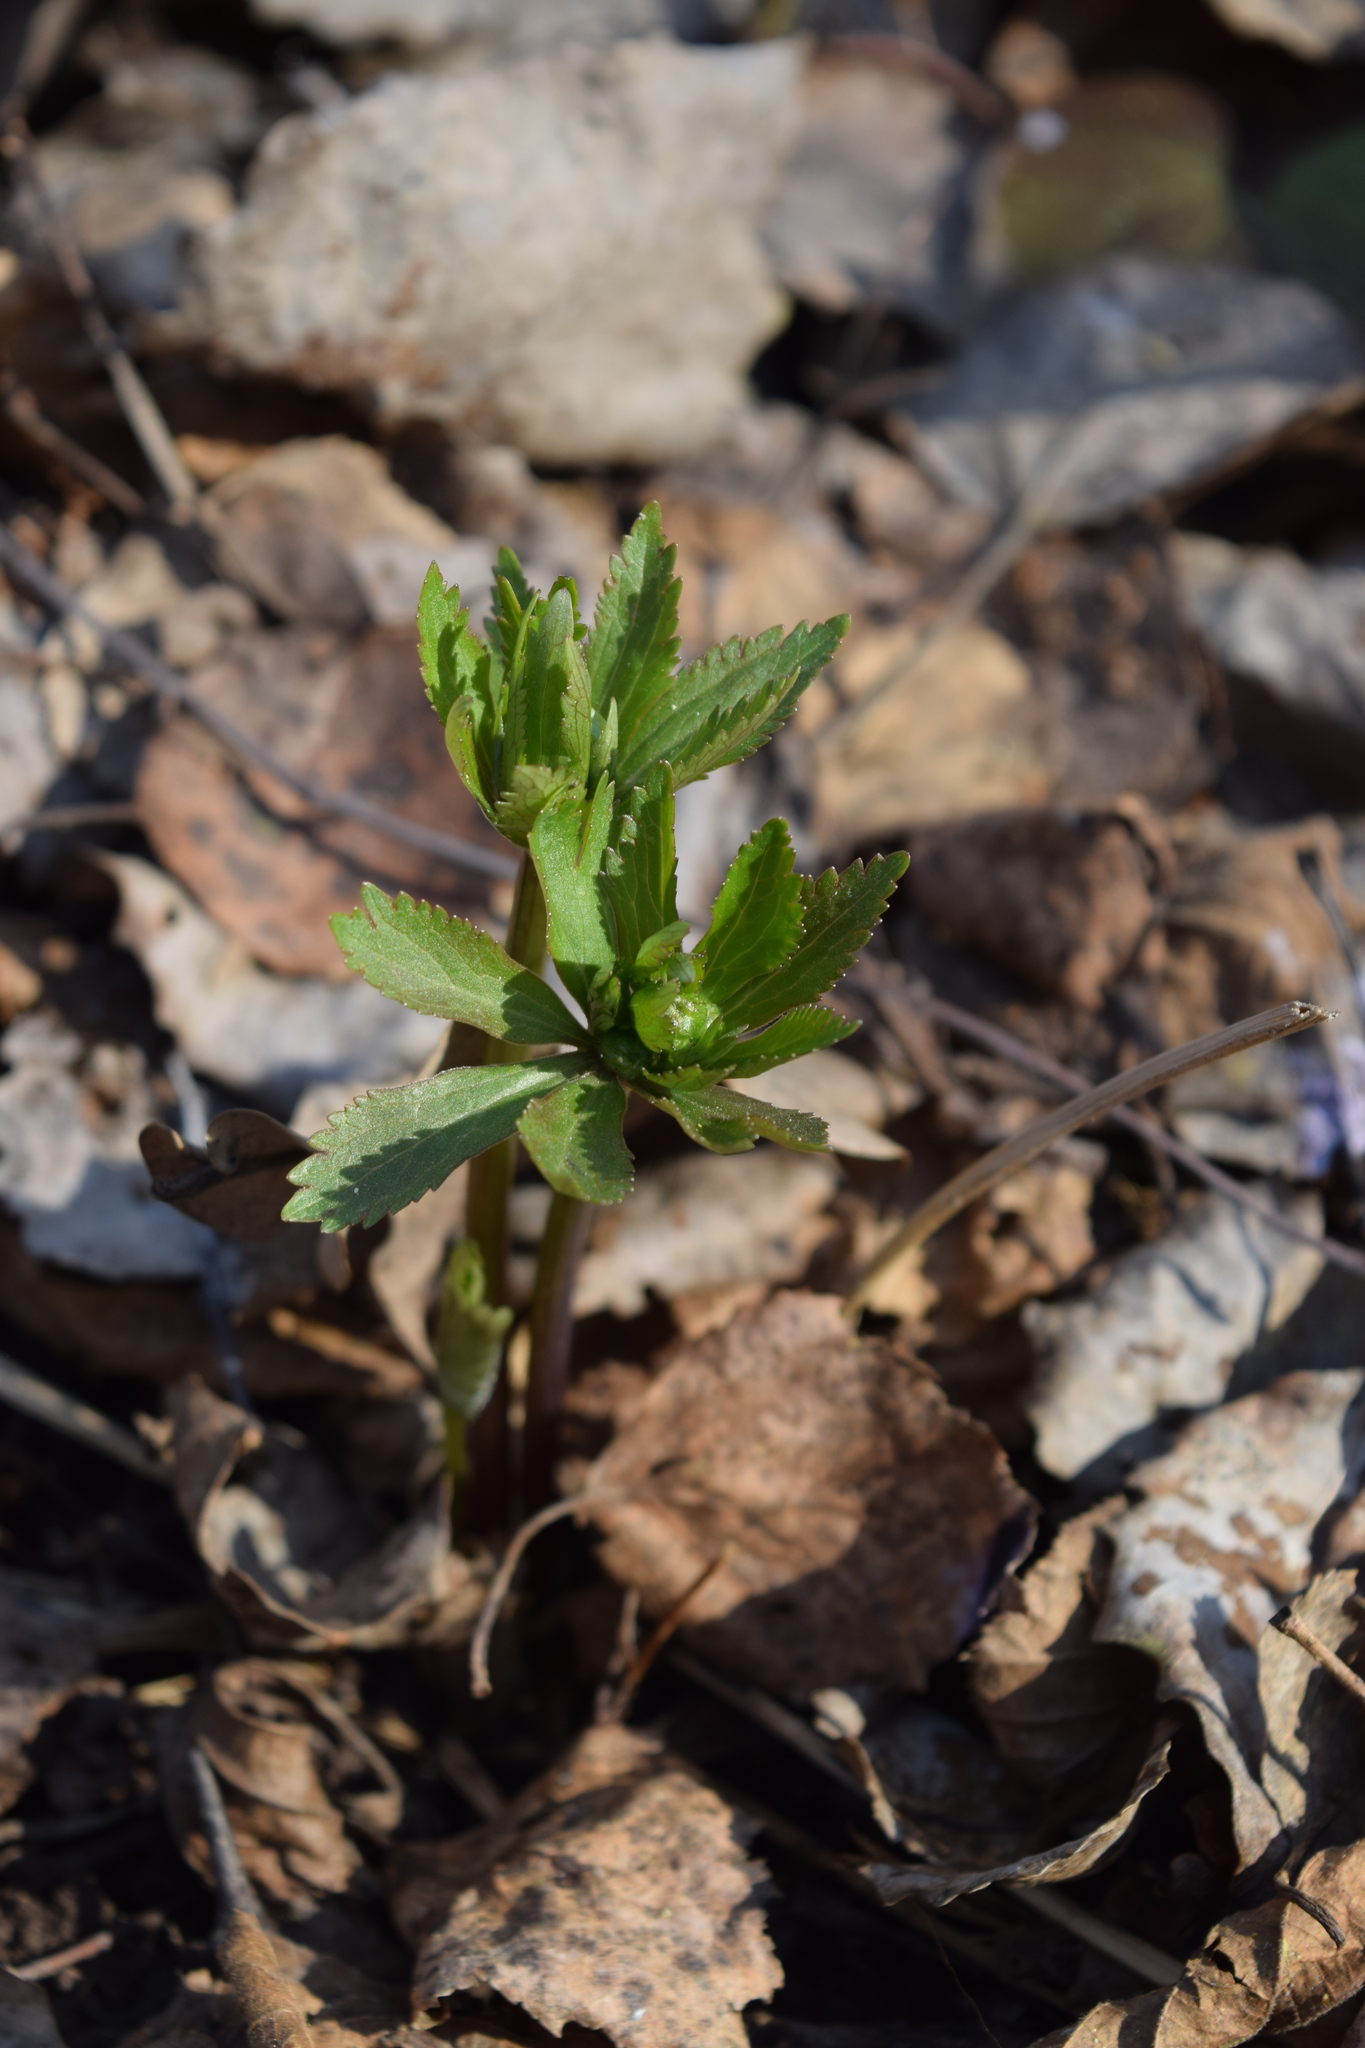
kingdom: Plantae
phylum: Tracheophyta
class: Magnoliopsida
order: Ranunculales
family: Ranunculaceae
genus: Ranunculus
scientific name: Ranunculus cassubicus
